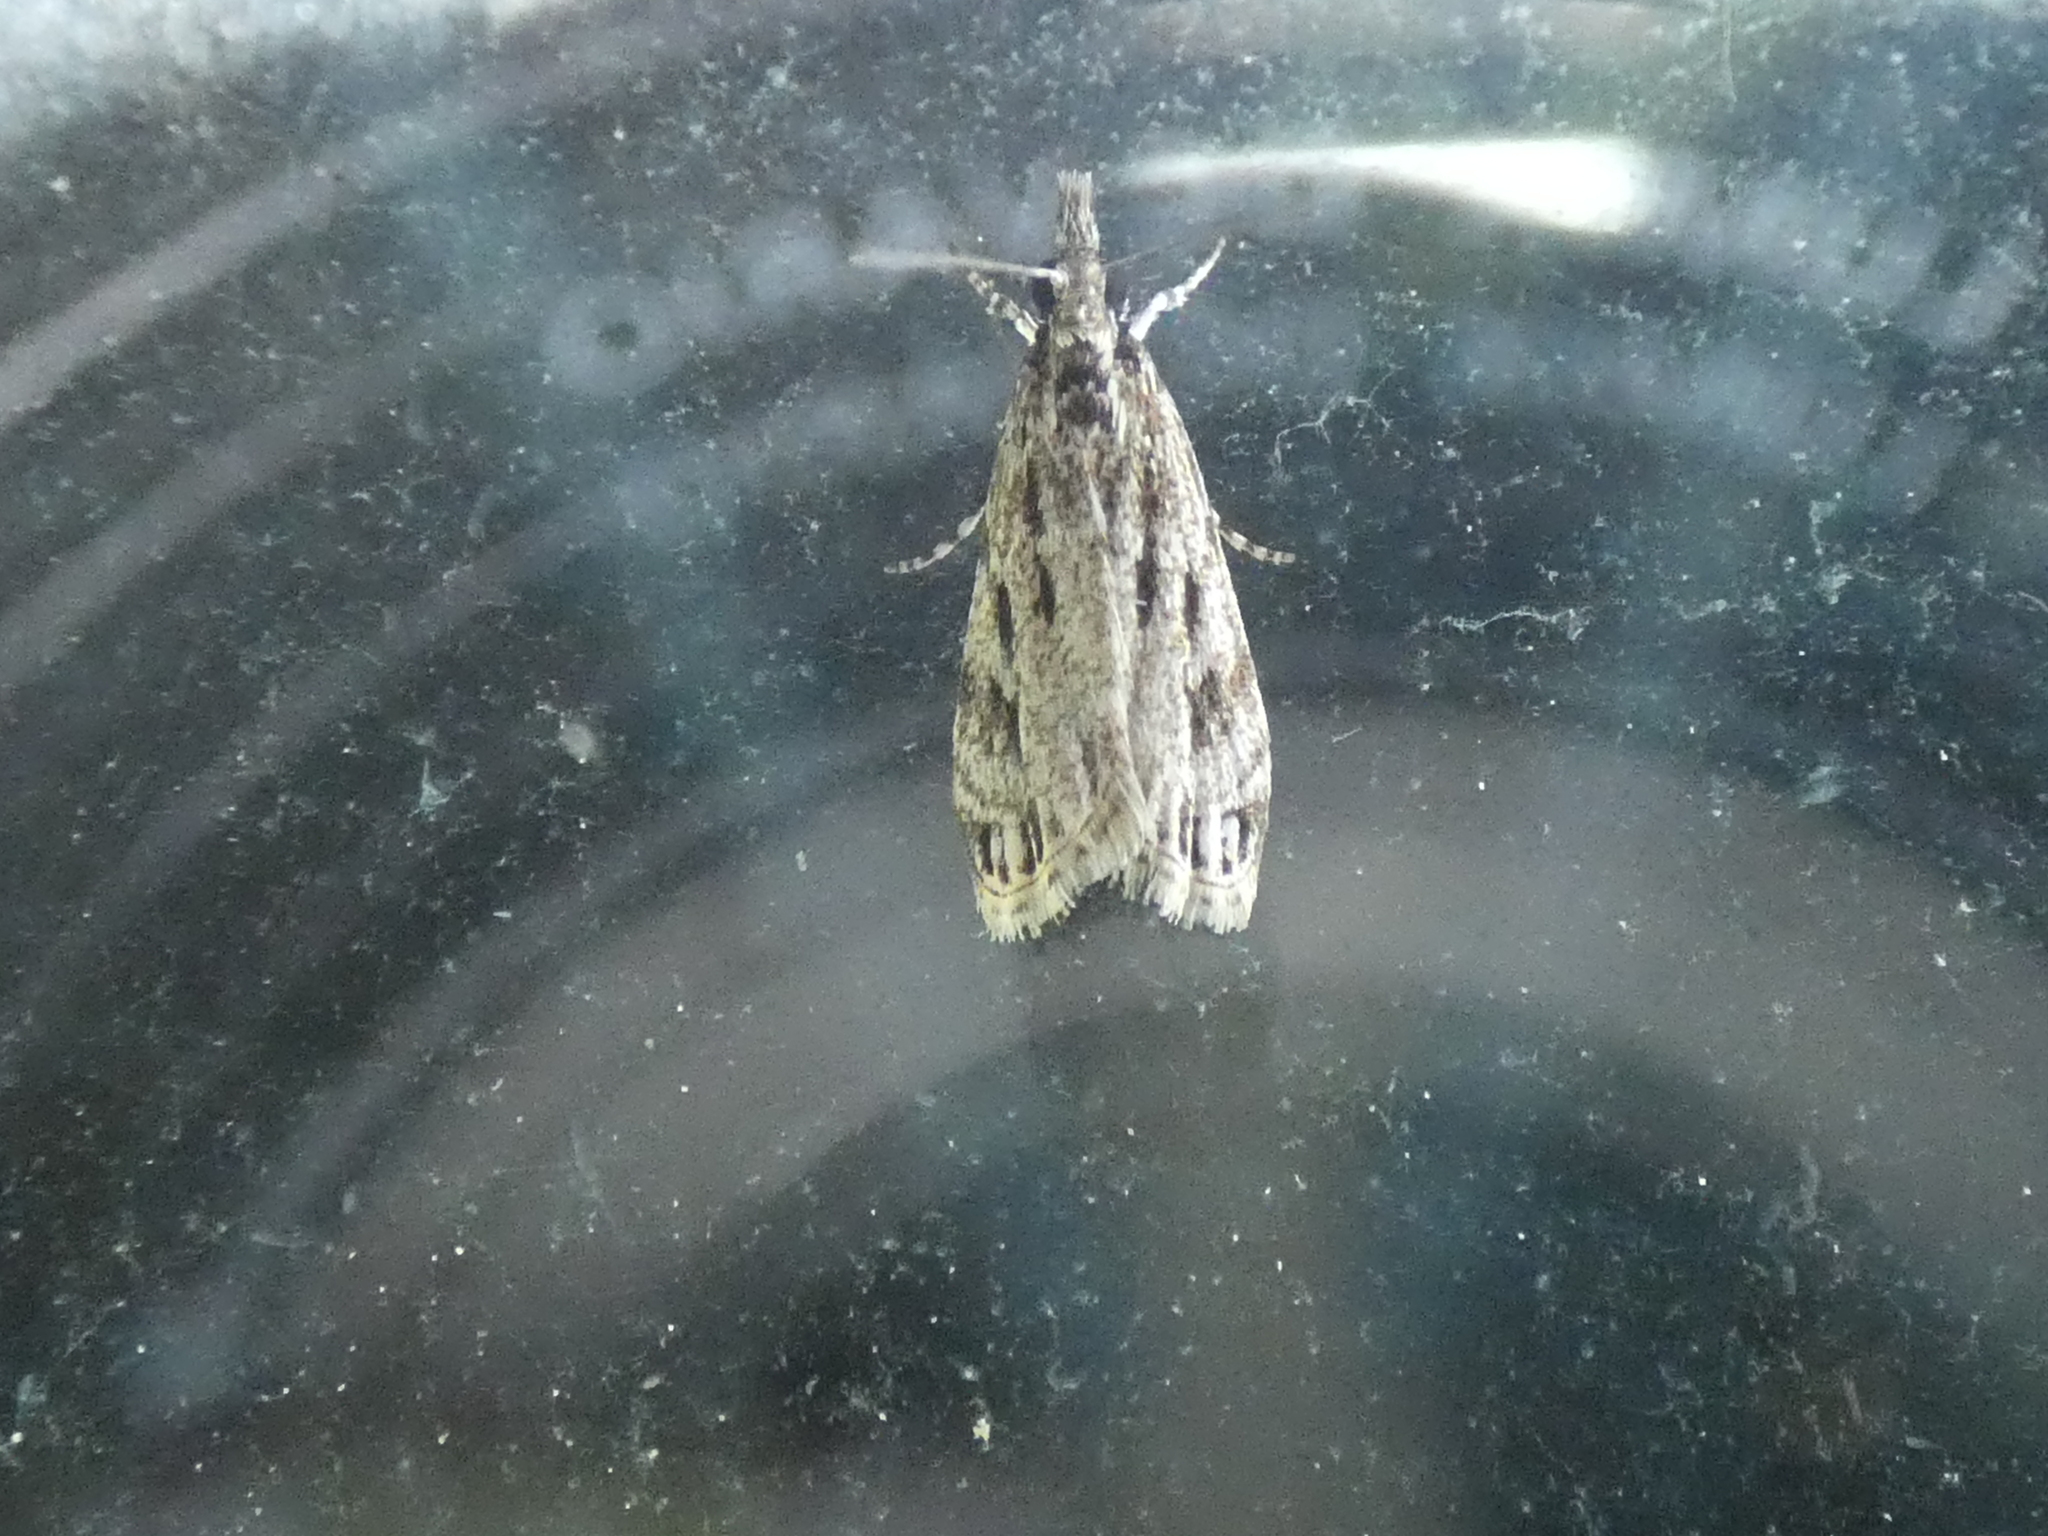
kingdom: Animalia
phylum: Arthropoda
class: Insecta
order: Lepidoptera
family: Crambidae
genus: Eudonia
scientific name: Eudonia strigalis
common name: Striped eudonia moth
